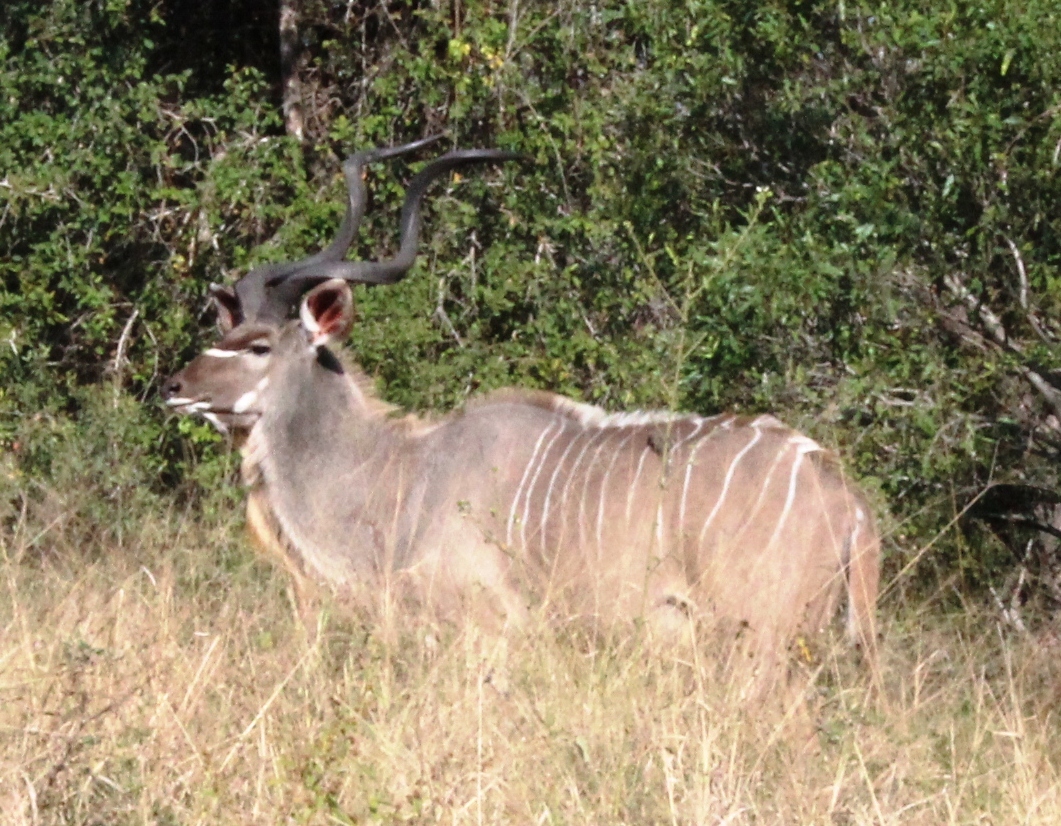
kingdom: Animalia
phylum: Chordata
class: Mammalia
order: Artiodactyla
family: Bovidae
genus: Tragelaphus
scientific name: Tragelaphus strepsiceros
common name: Greater kudu
